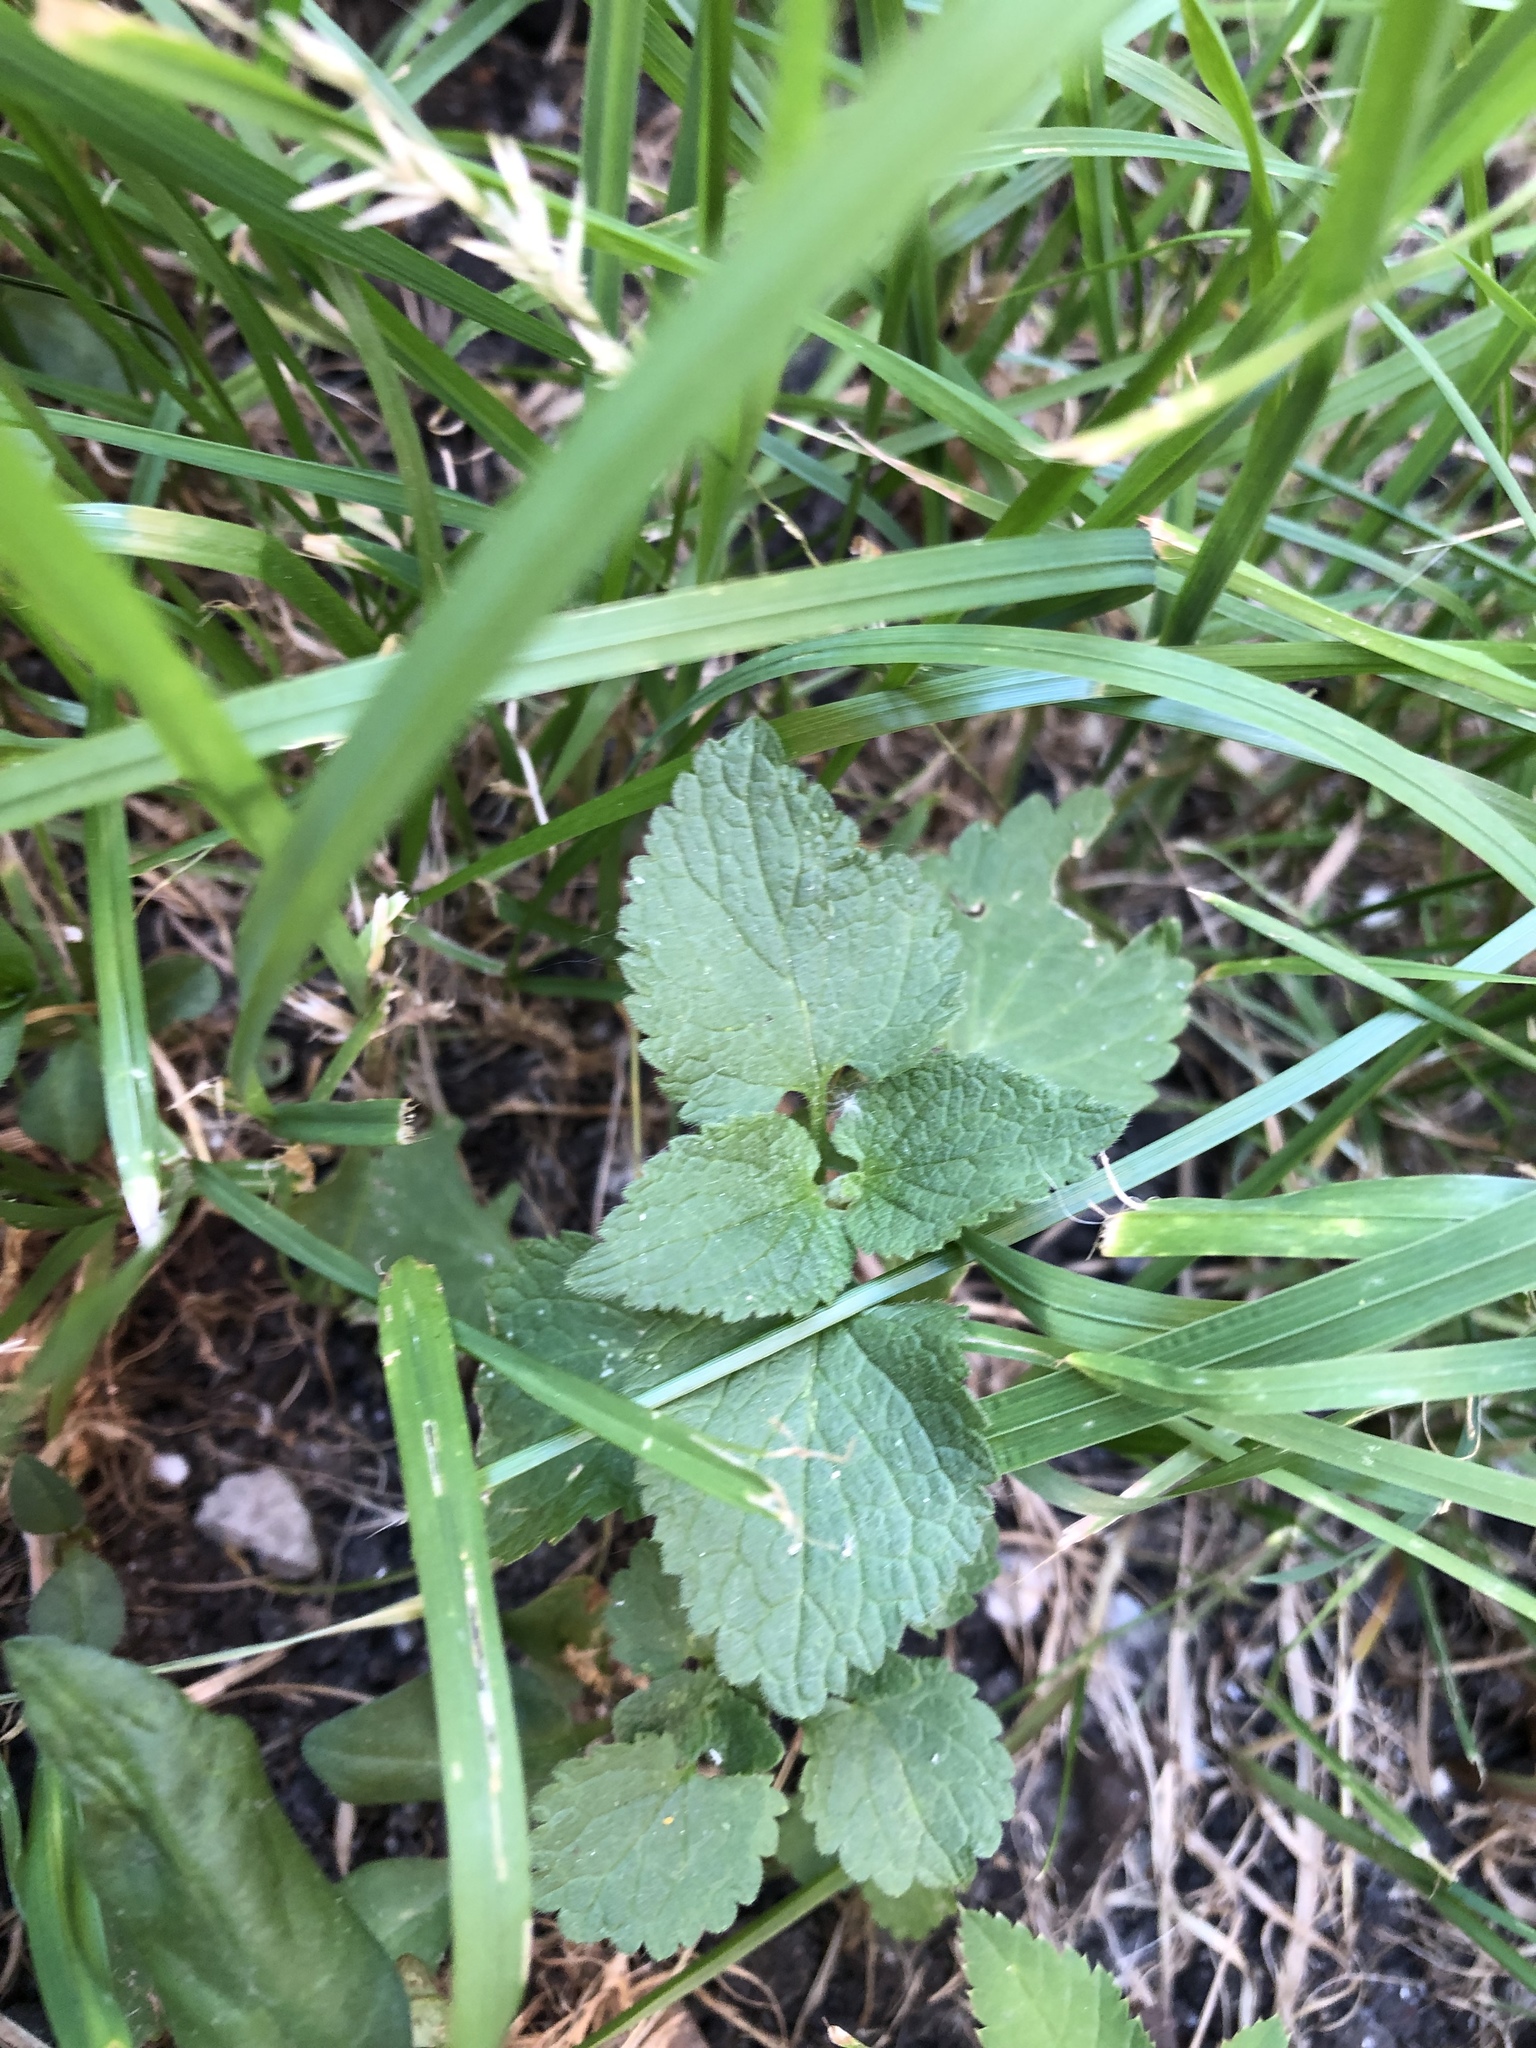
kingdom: Plantae
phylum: Tracheophyta
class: Magnoliopsida
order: Lamiales
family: Lamiaceae
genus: Lamium
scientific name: Lamium album
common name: White dead-nettle
